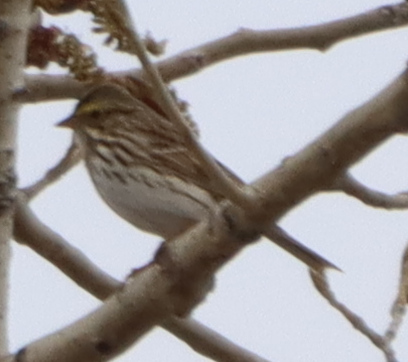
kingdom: Animalia
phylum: Chordata
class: Aves
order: Passeriformes
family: Passerellidae
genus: Passerculus
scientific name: Passerculus sandwichensis
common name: Savannah sparrow
